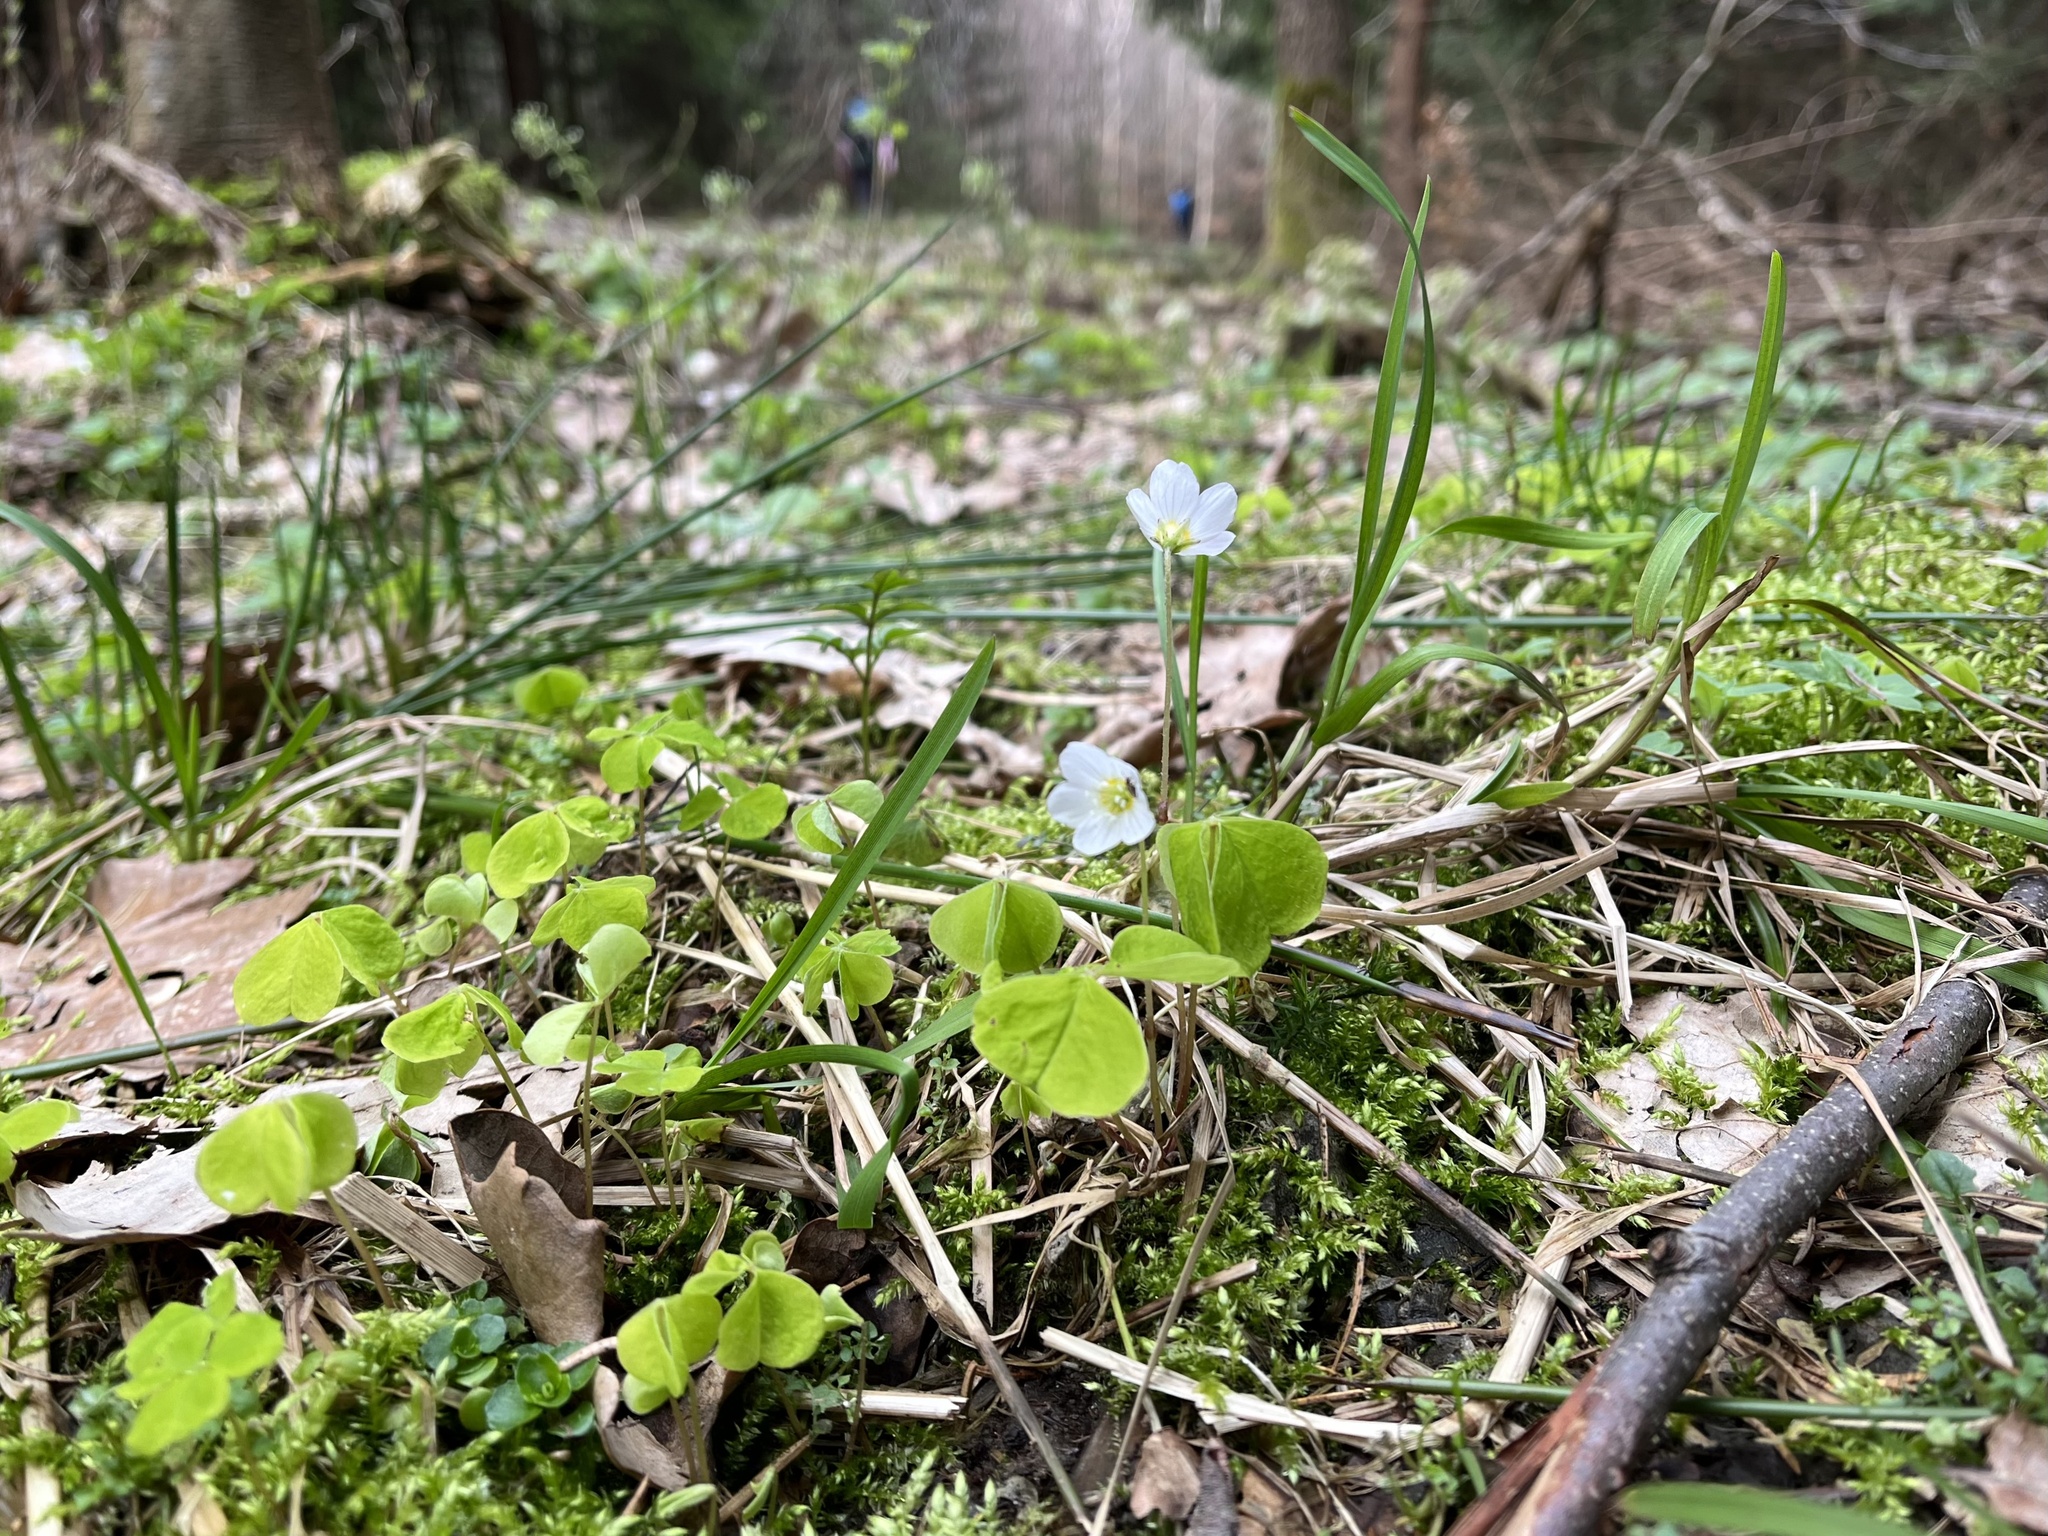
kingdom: Plantae
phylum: Tracheophyta
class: Magnoliopsida
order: Oxalidales
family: Oxalidaceae
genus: Oxalis
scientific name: Oxalis acetosella
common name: Wood-sorrel
